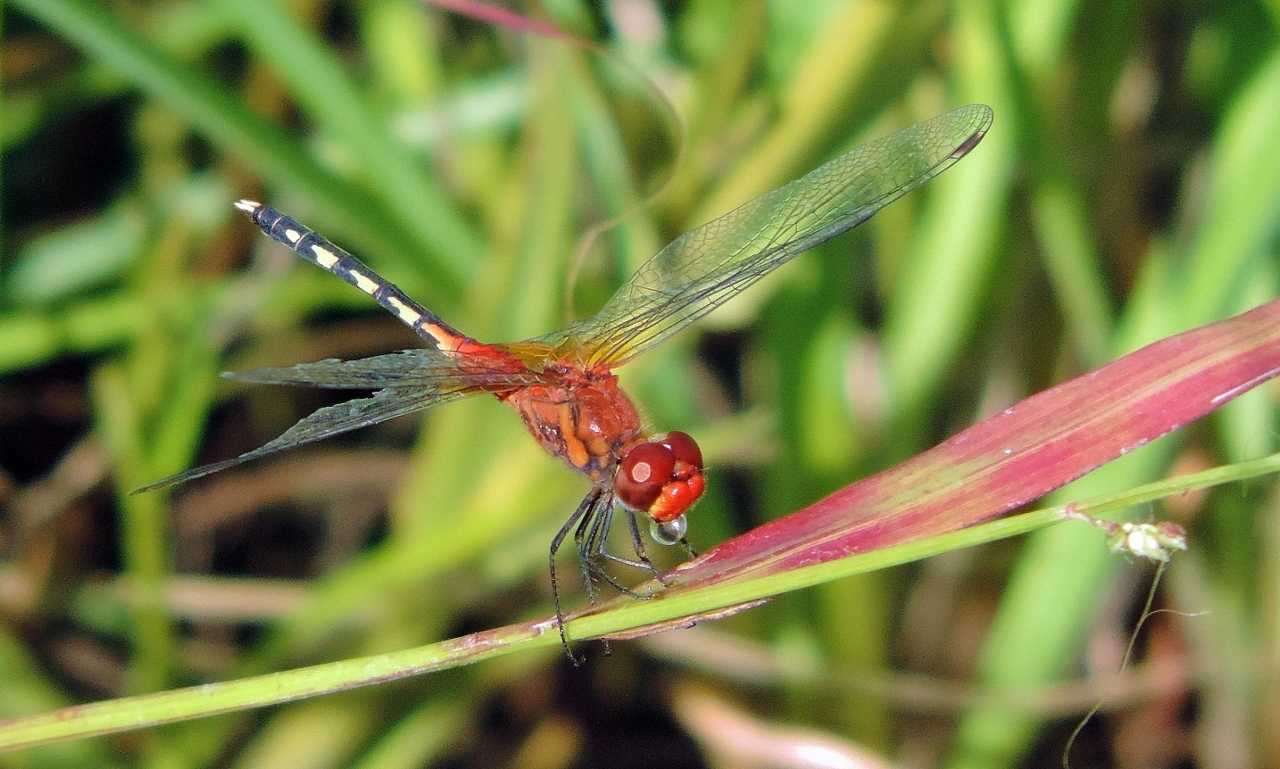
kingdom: Animalia
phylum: Arthropoda
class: Insecta
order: Odonata
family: Libellulidae
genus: Diplacodes
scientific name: Diplacodes luminans
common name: Barbet percher
